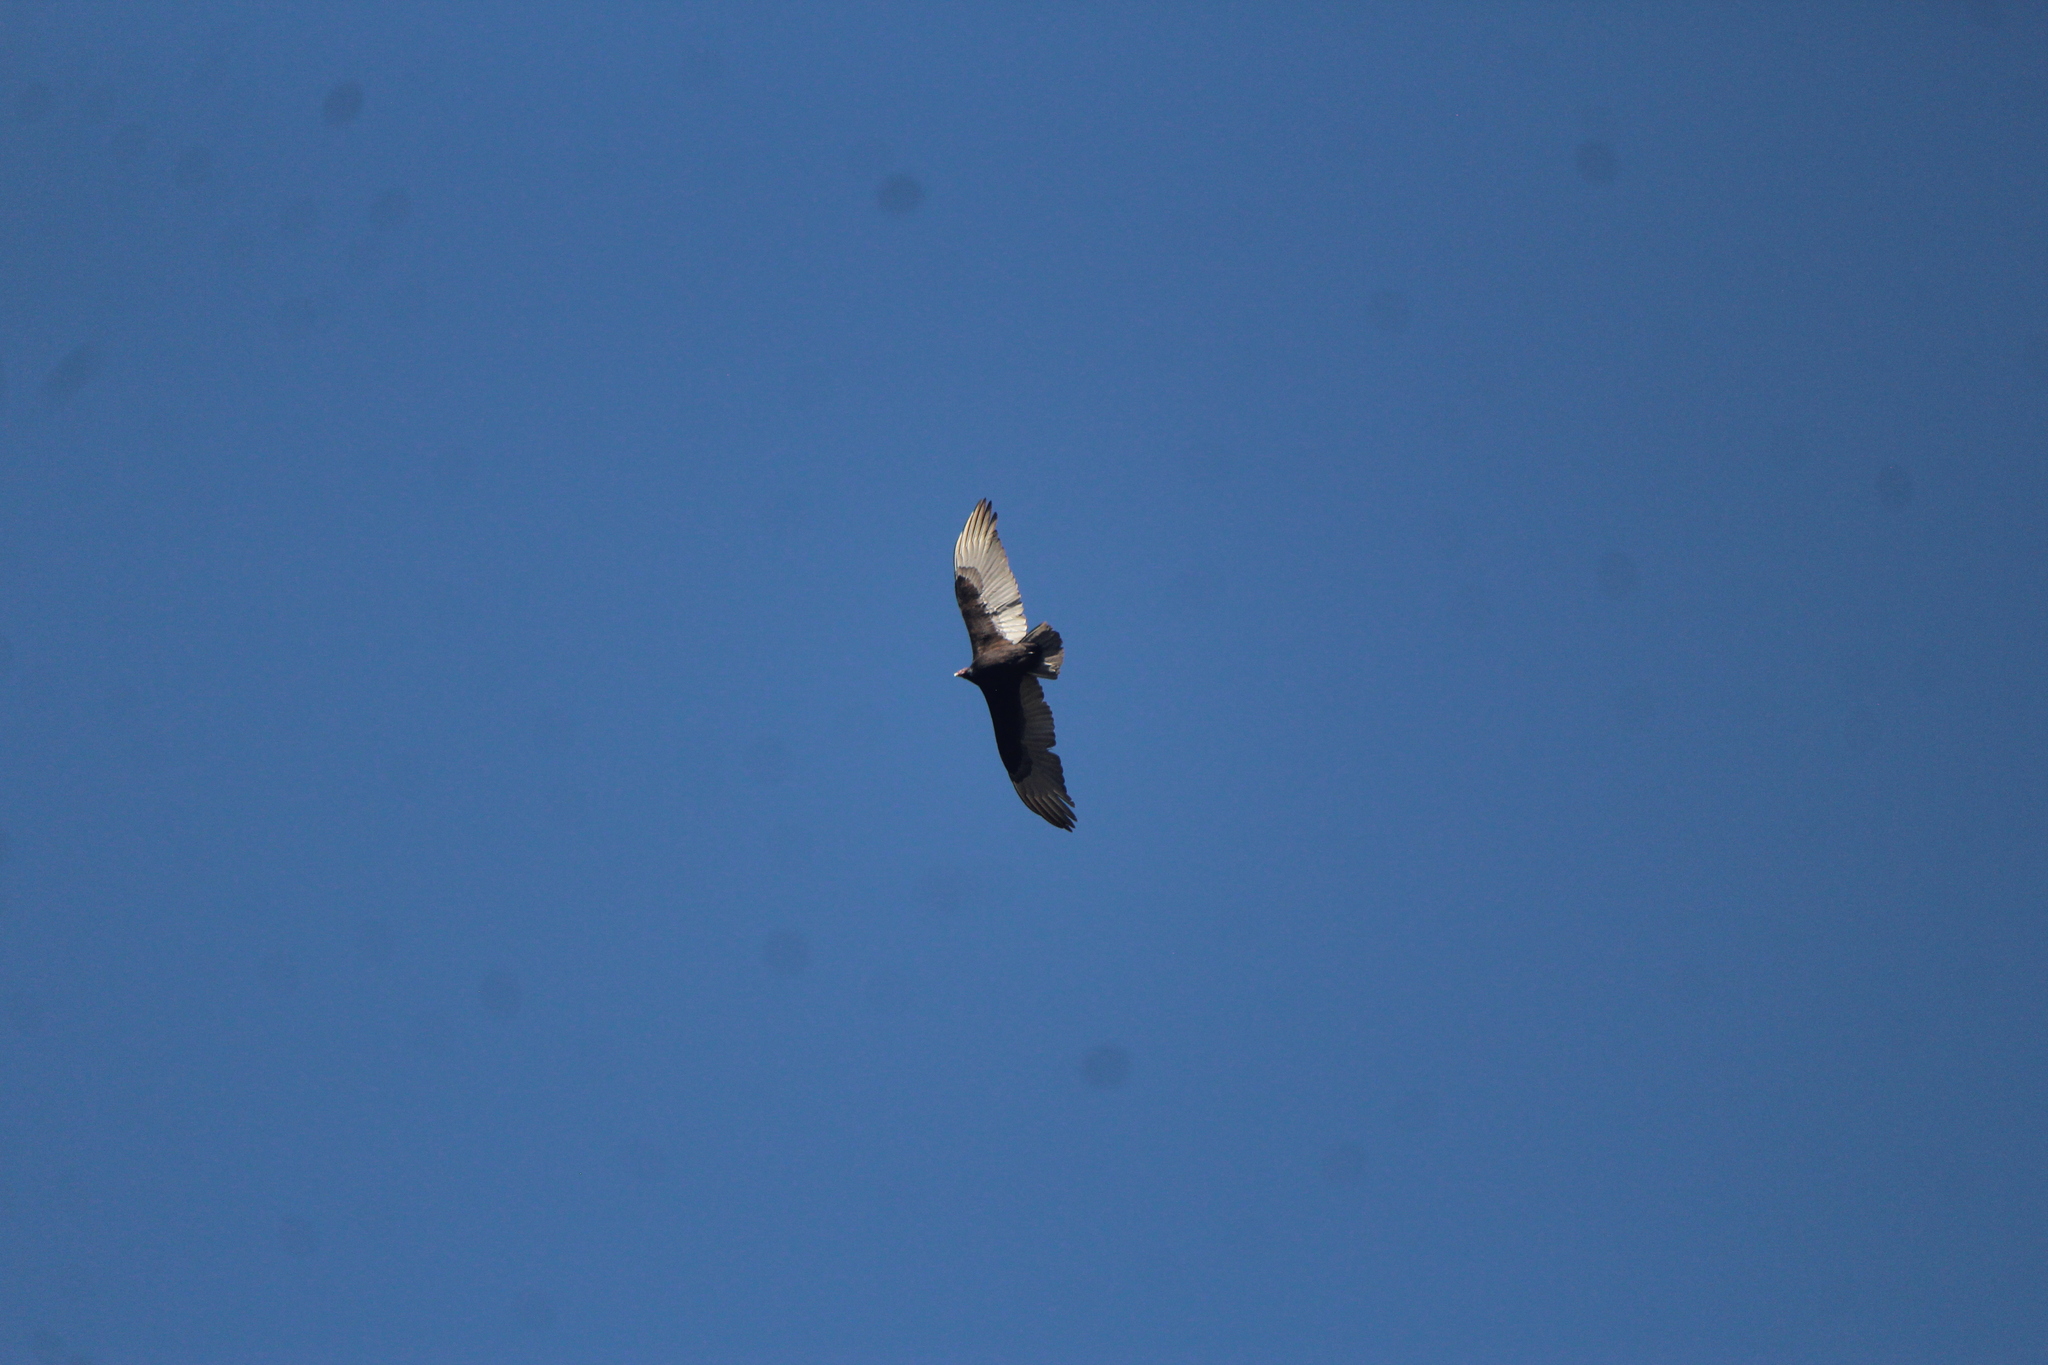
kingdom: Animalia
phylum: Chordata
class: Aves
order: Accipitriformes
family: Cathartidae
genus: Cathartes
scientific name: Cathartes aura
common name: Turkey vulture
